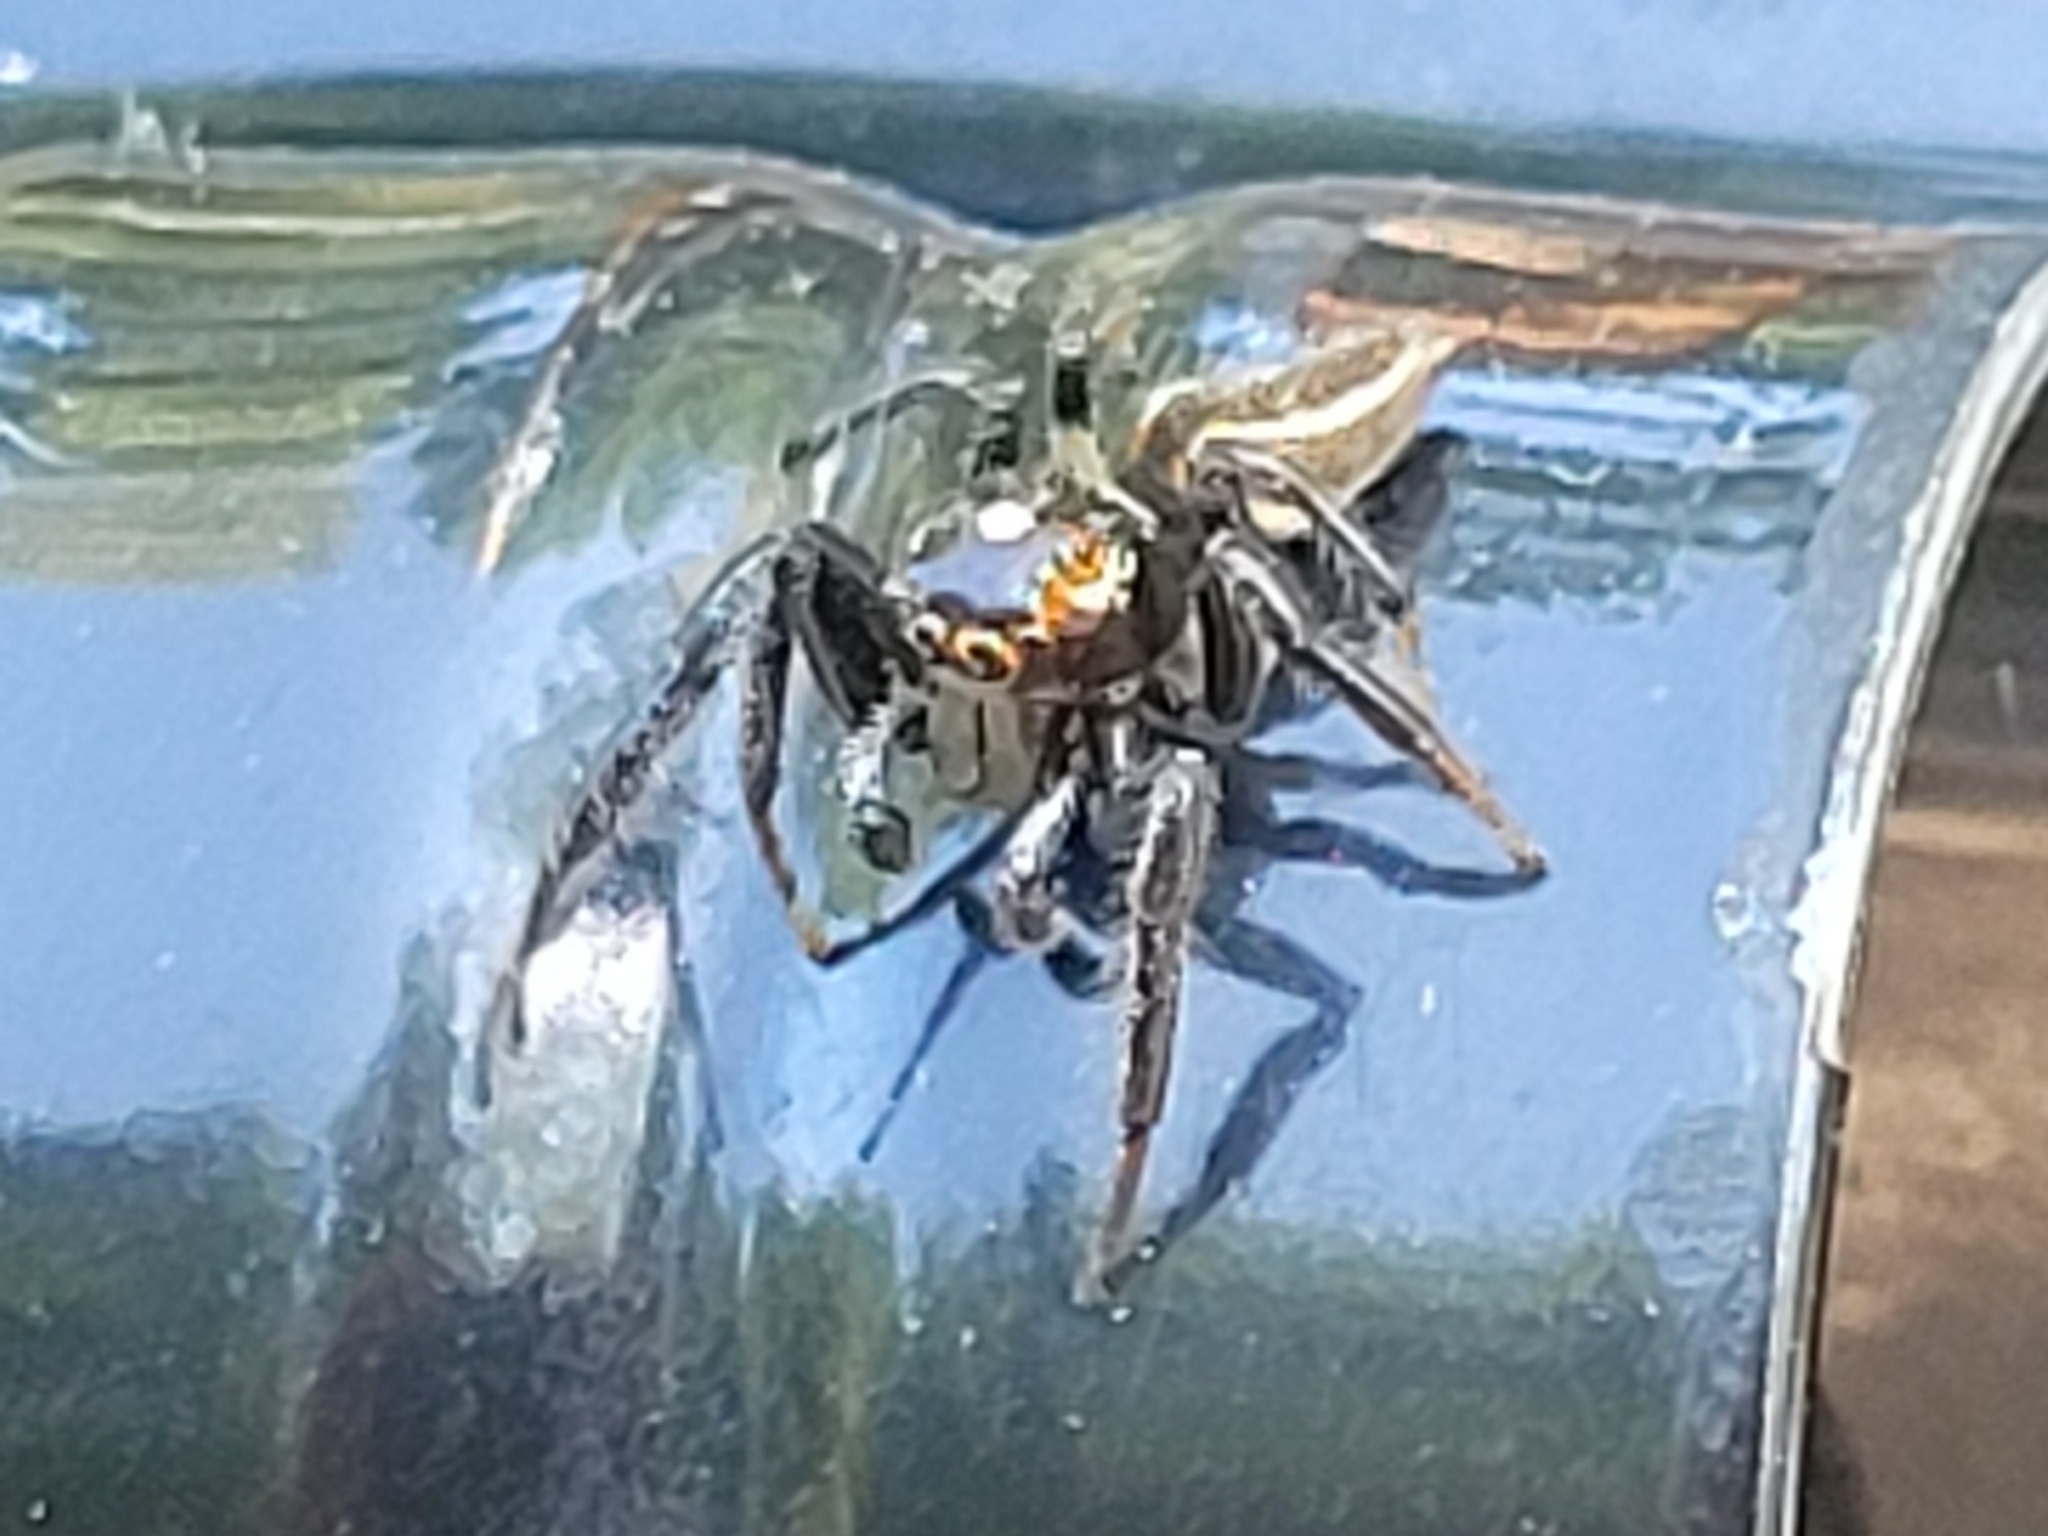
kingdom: Animalia
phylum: Arthropoda
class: Arachnida
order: Araneae
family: Salticidae
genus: Colonus
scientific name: Colonus sylvanus
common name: Jumping spiders
